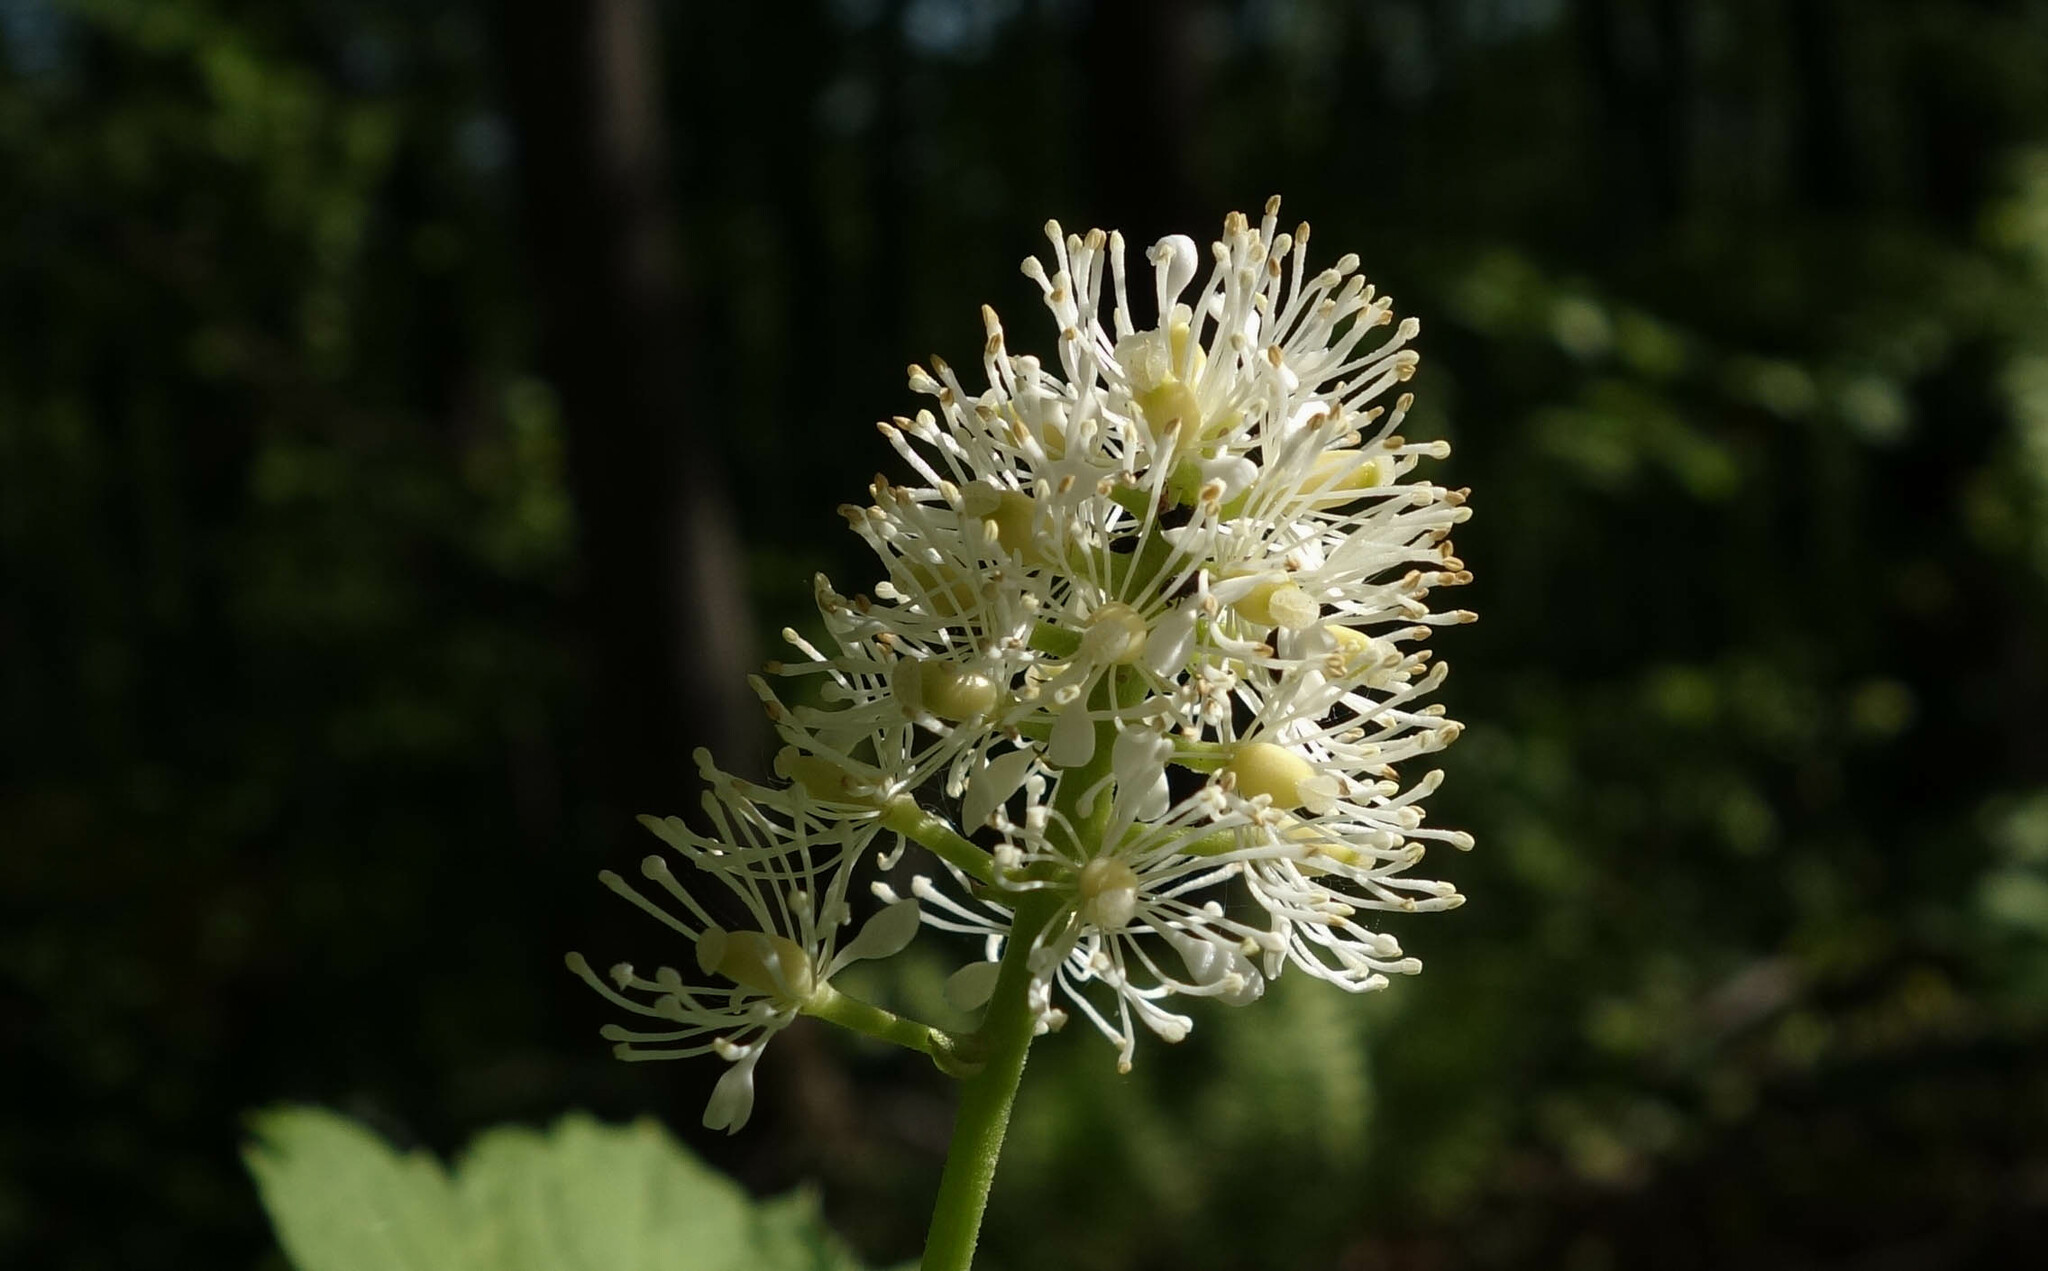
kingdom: Plantae
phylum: Tracheophyta
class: Magnoliopsida
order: Ranunculales
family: Ranunculaceae
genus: Actaea
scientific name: Actaea spicata
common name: Baneberry
